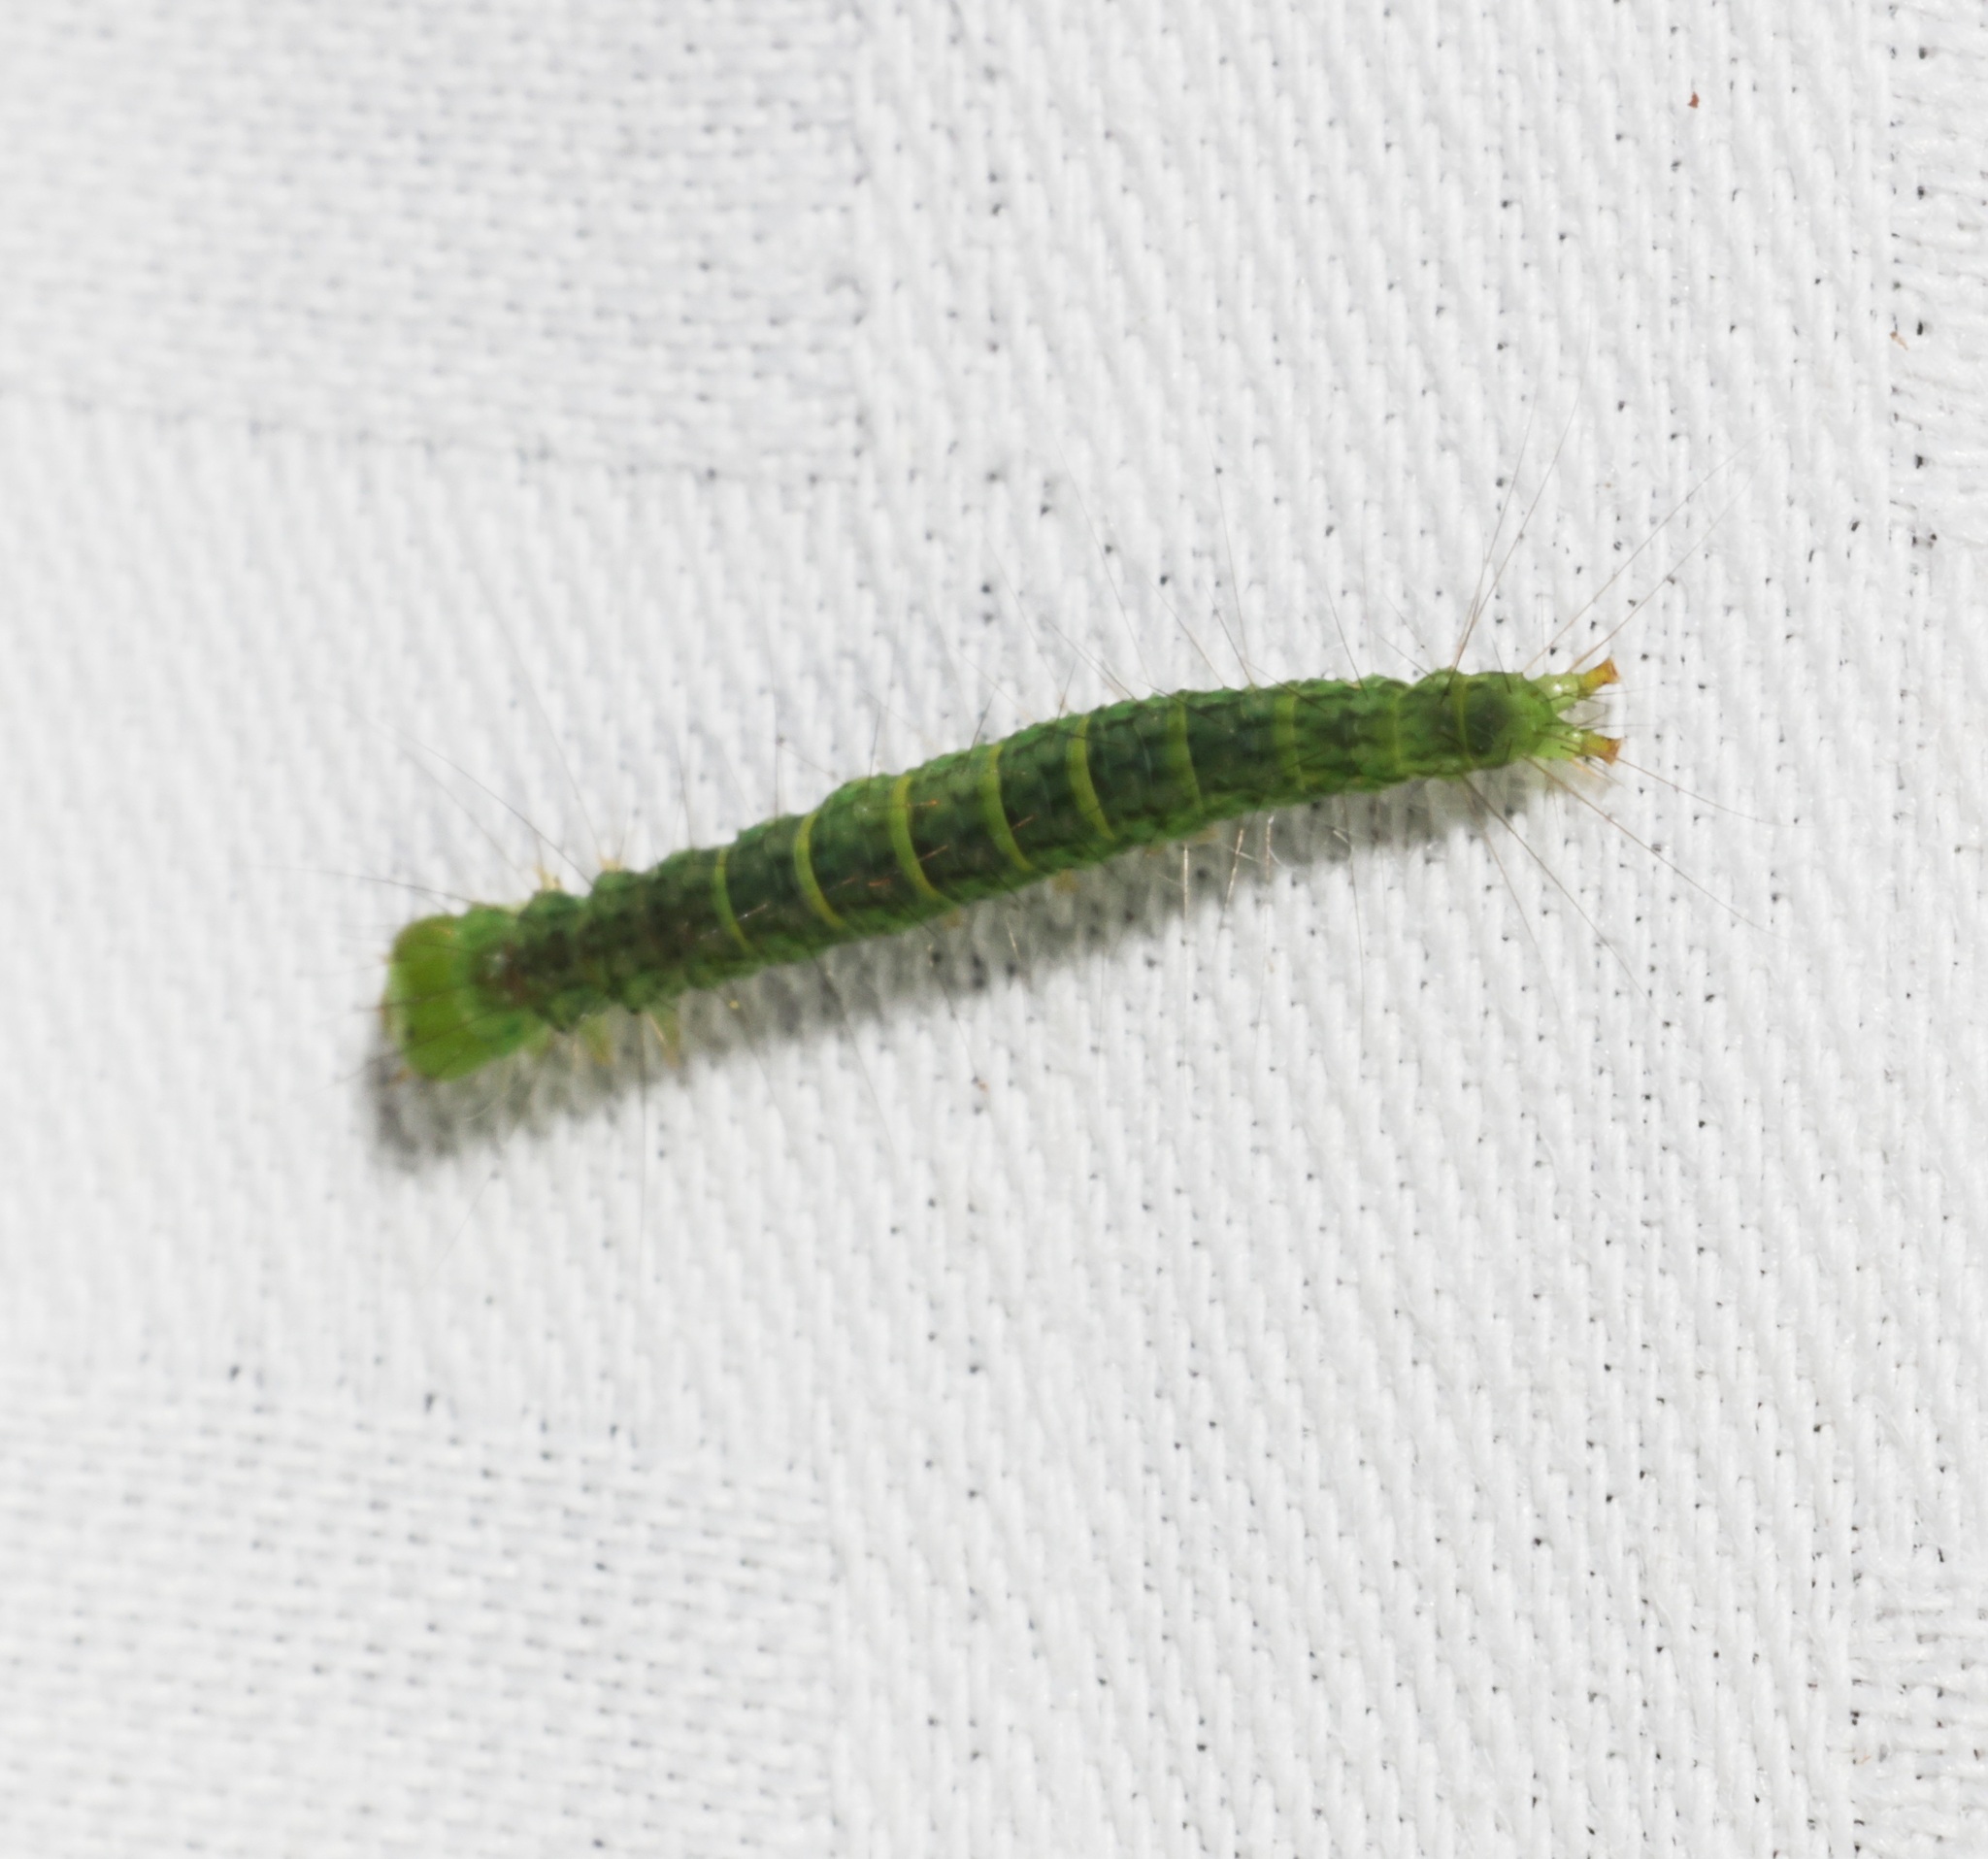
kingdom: Animalia
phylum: Arthropoda
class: Insecta
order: Lepidoptera
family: Immidae
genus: Imma
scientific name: Imma mylias
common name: Moth
